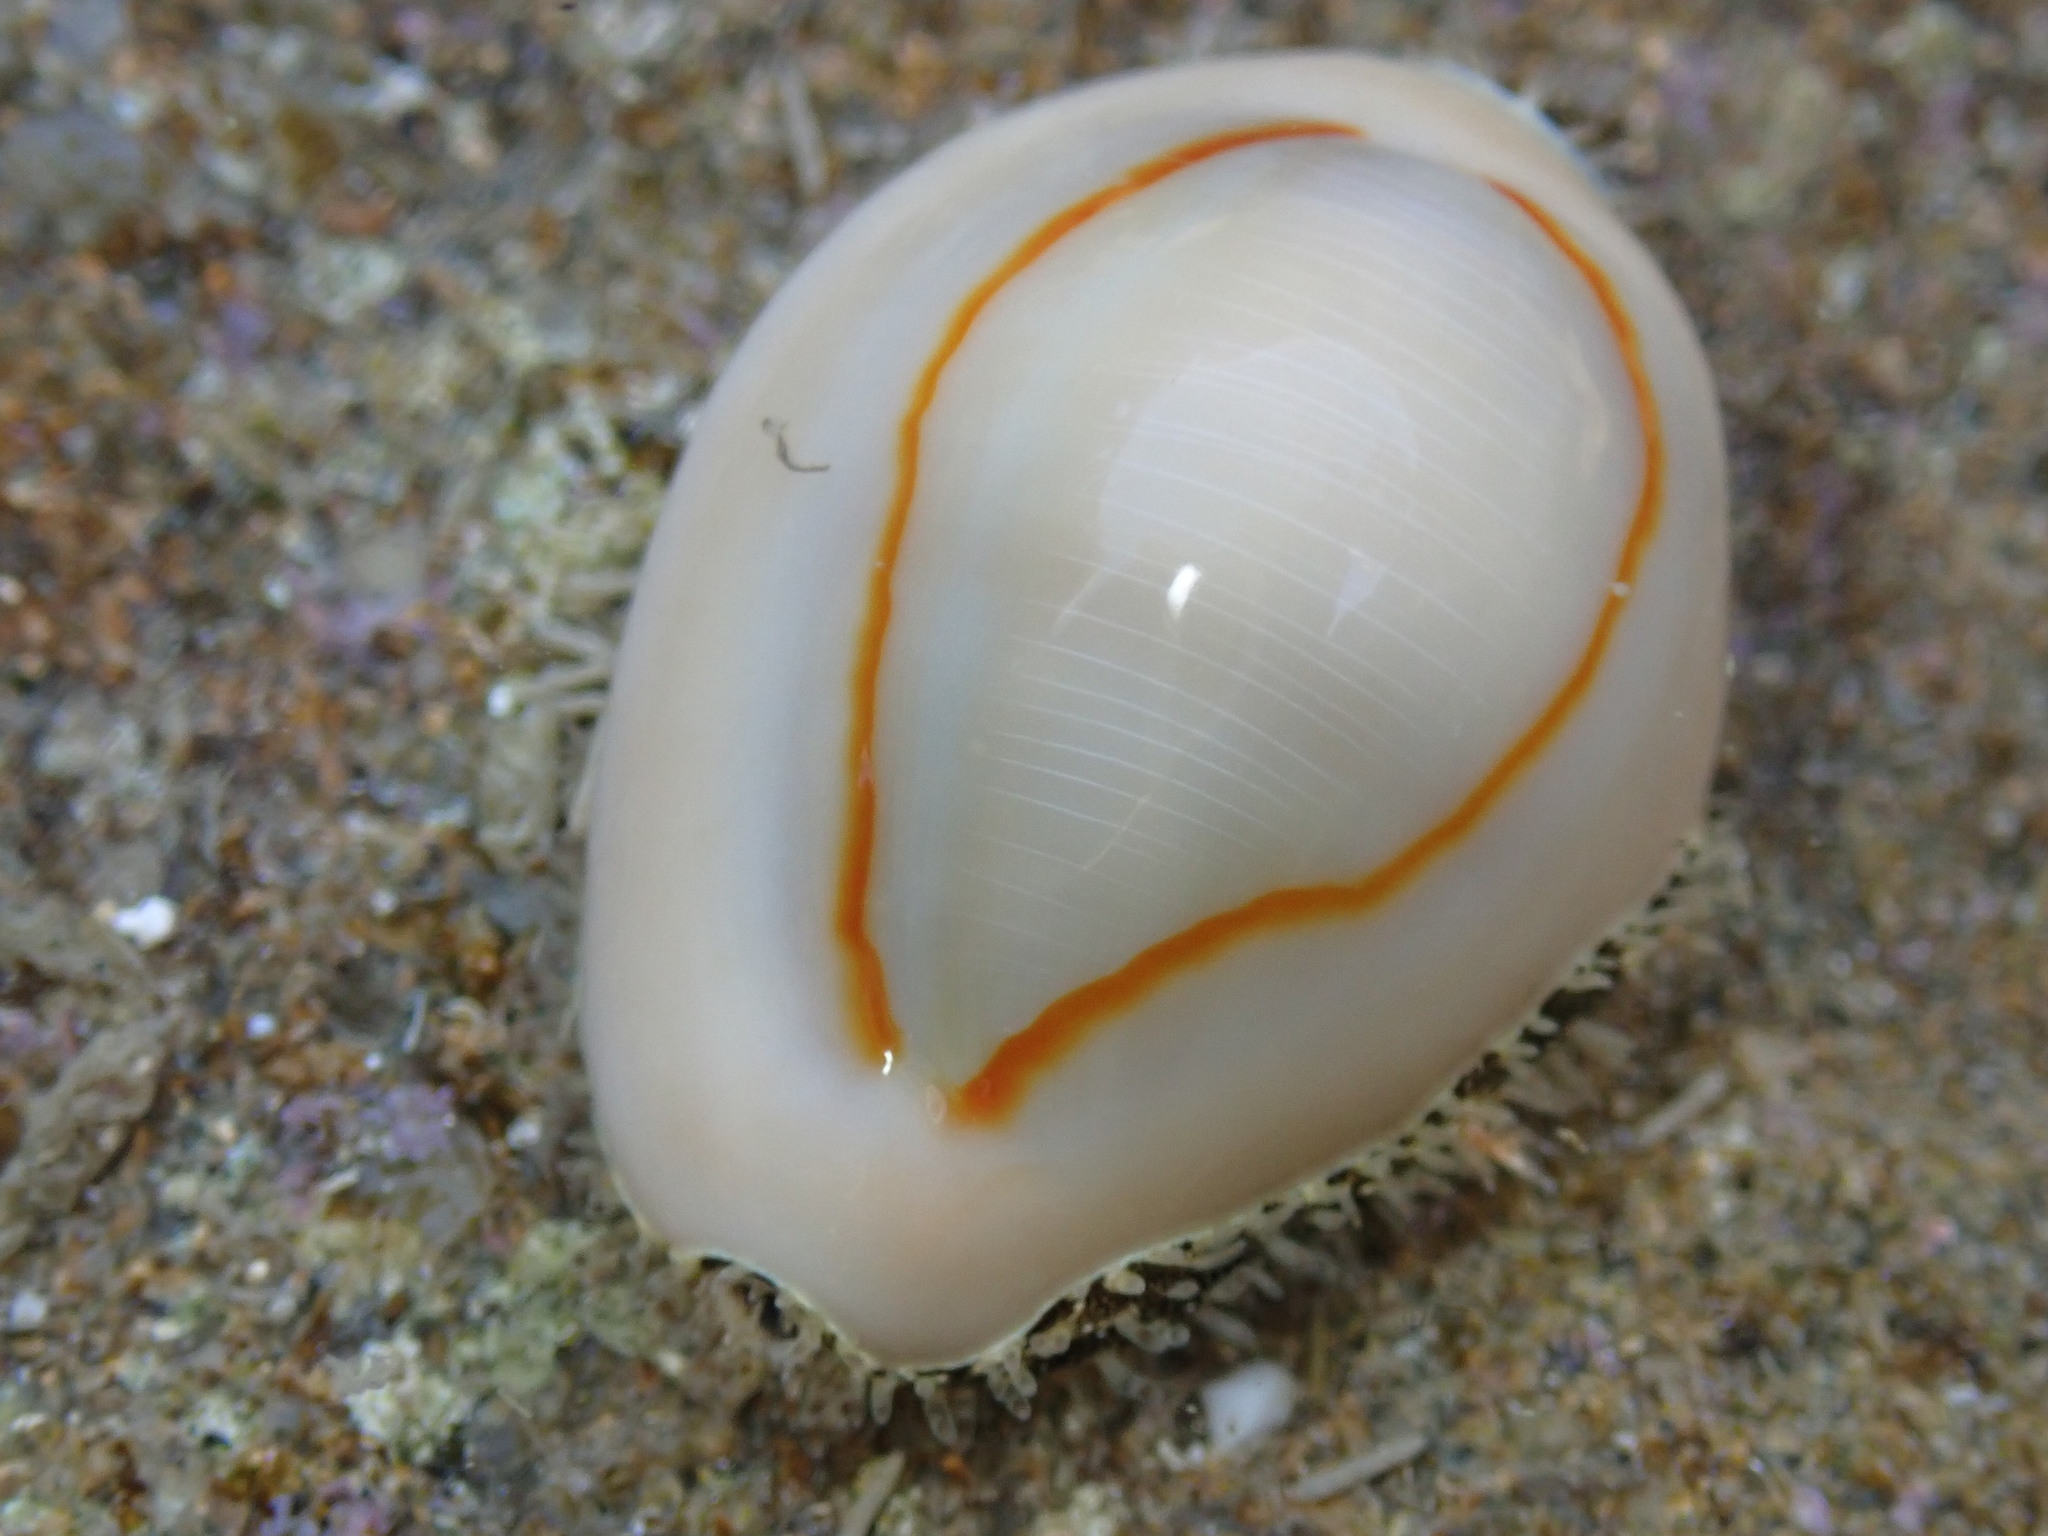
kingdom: Animalia
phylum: Mollusca
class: Gastropoda
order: Littorinimorpha
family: Cypraeidae
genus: Monetaria
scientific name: Monetaria annulus
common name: Ring cowrie
